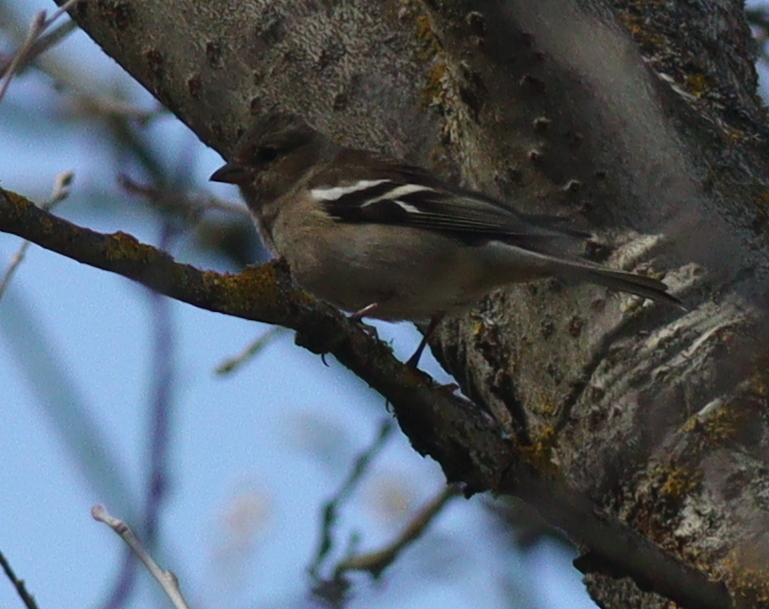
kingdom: Animalia
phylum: Chordata
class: Aves
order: Passeriformes
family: Fringillidae
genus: Fringilla
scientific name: Fringilla coelebs
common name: Common chaffinch
